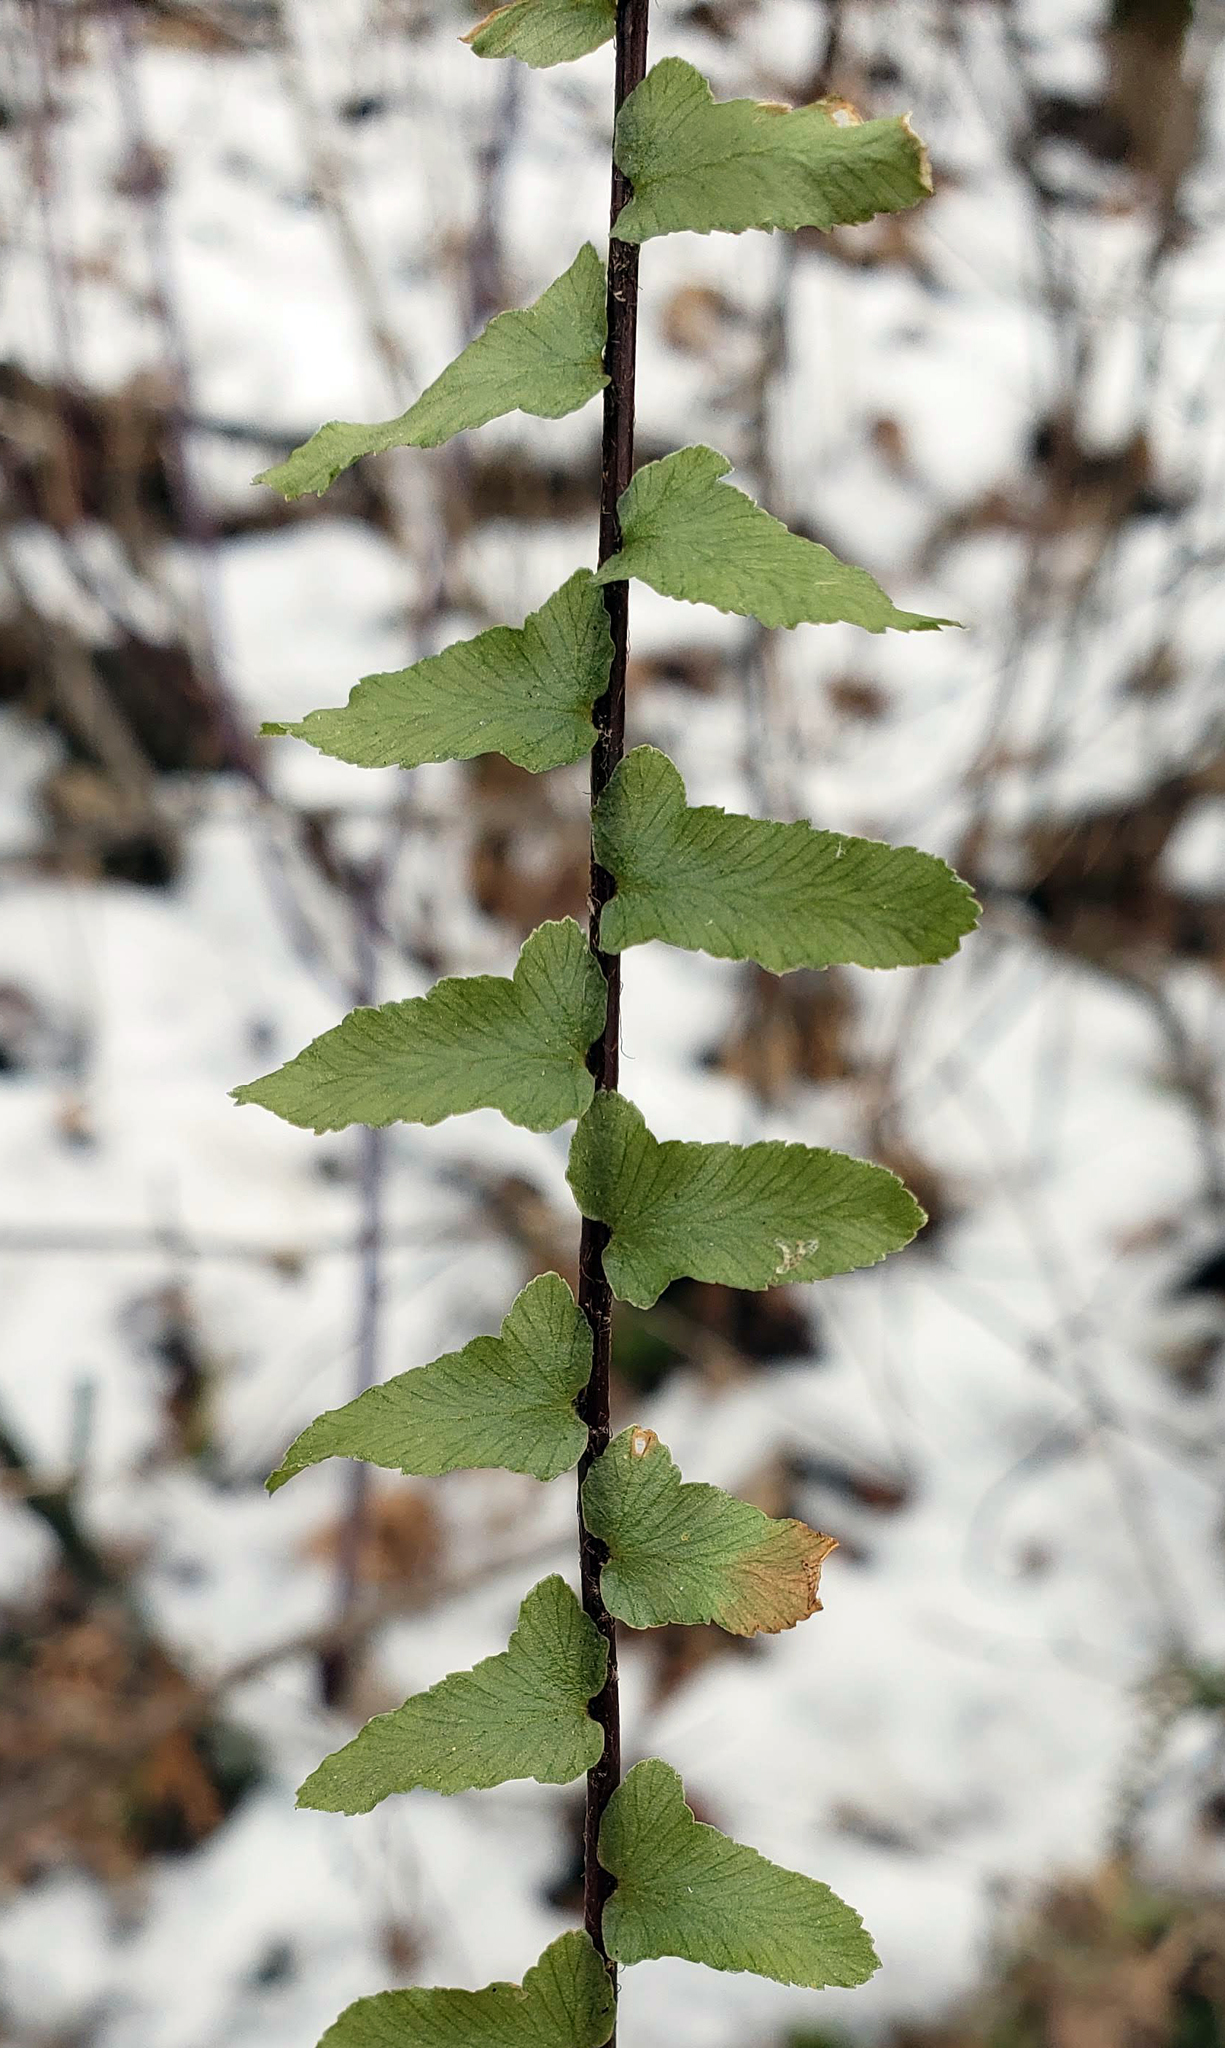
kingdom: Plantae
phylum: Tracheophyta
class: Polypodiopsida
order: Polypodiales
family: Aspleniaceae
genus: Asplenium
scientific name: Asplenium platyneuron
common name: Ebony spleenwort
